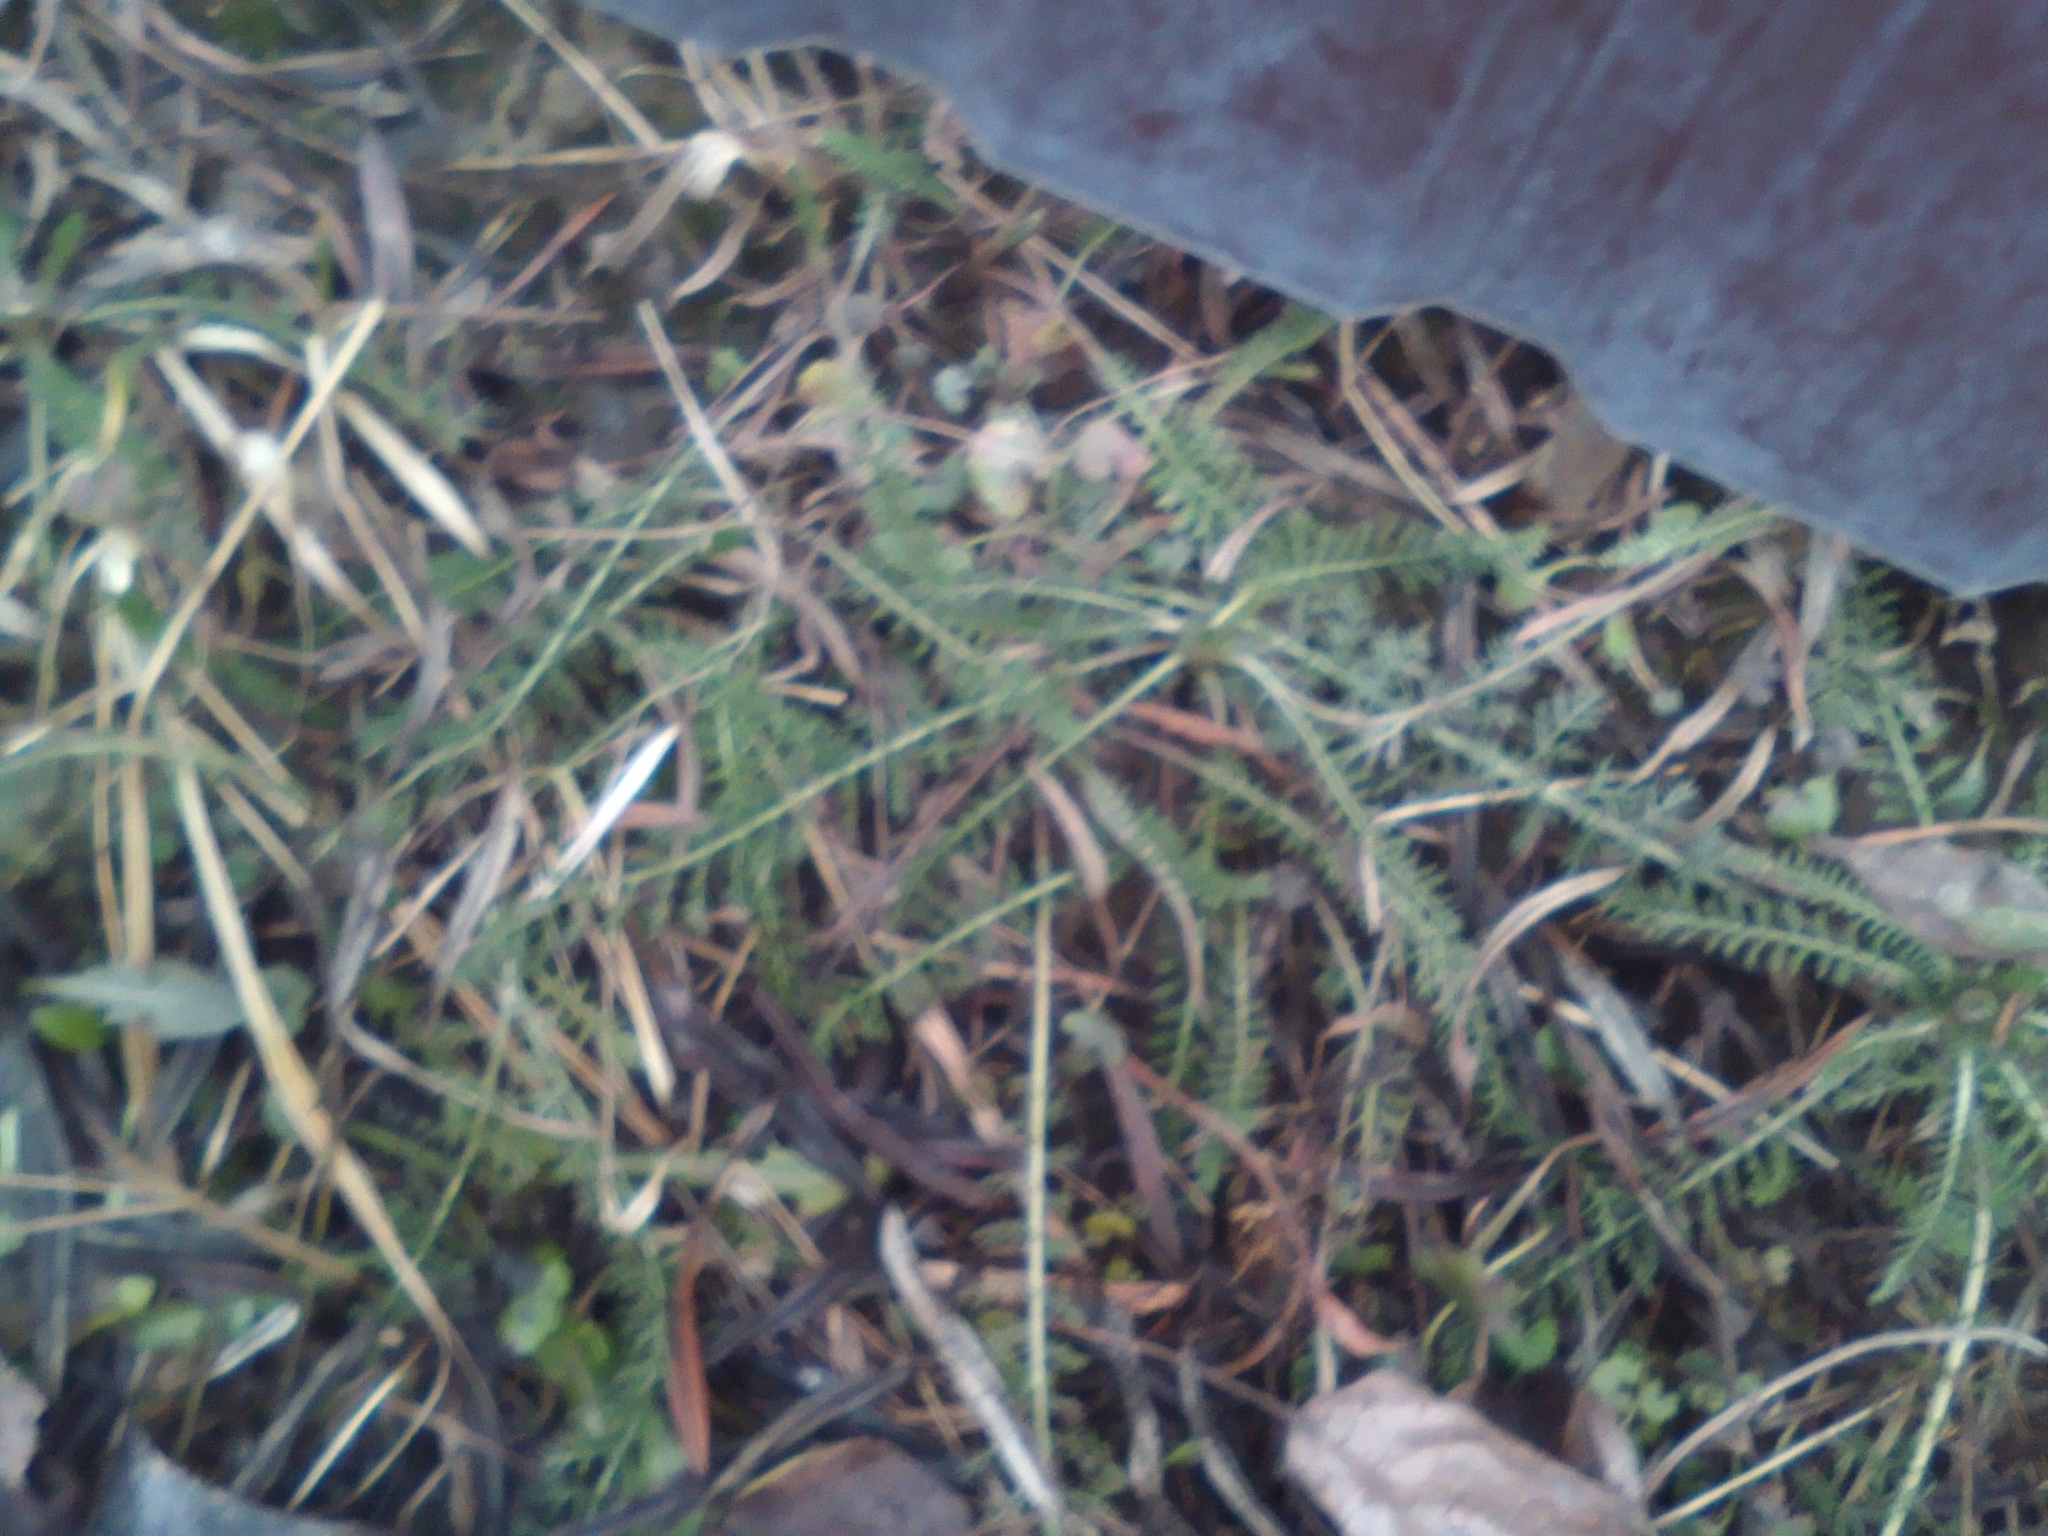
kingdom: Plantae
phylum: Tracheophyta
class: Magnoliopsida
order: Asterales
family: Asteraceae
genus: Achillea
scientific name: Achillea millefolium
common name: Yarrow
